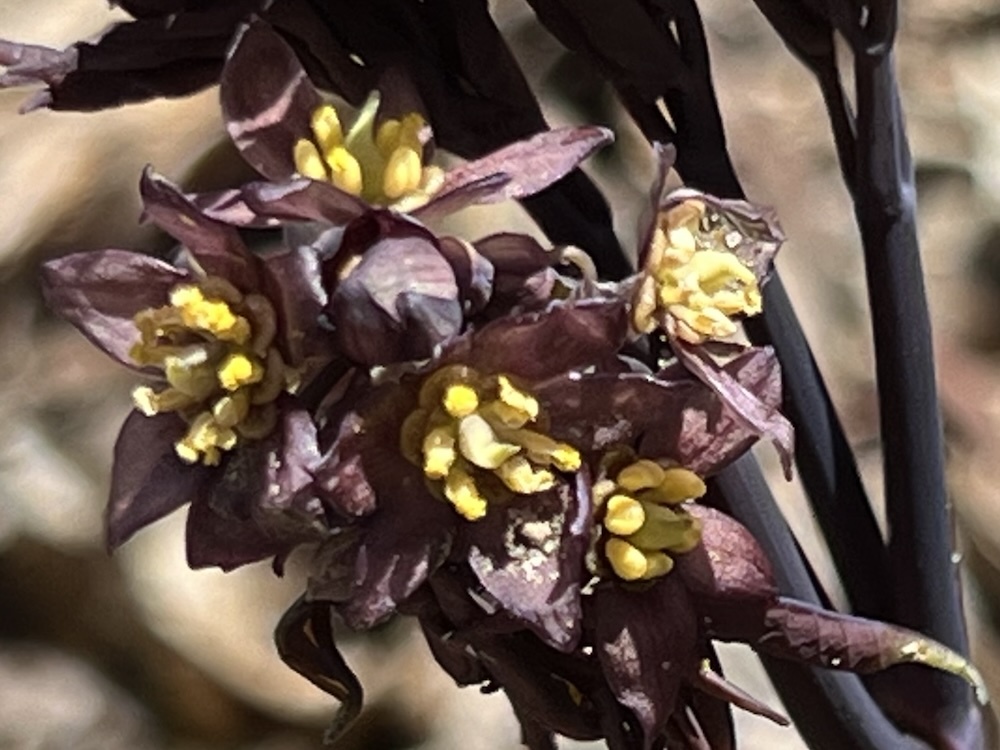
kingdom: Plantae
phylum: Tracheophyta
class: Magnoliopsida
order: Ranunculales
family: Berberidaceae
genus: Caulophyllum
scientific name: Caulophyllum giganteum
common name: Blue cohosh
